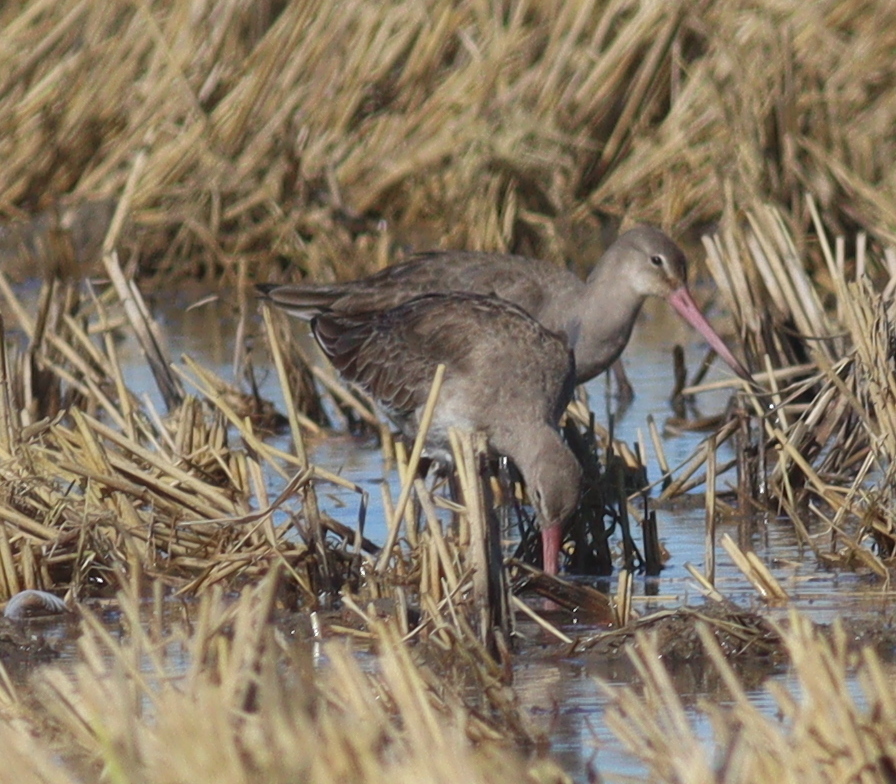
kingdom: Animalia
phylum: Chordata
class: Aves
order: Charadriiformes
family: Scolopacidae
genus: Limosa
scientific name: Limosa limosa
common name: Black-tailed godwit
